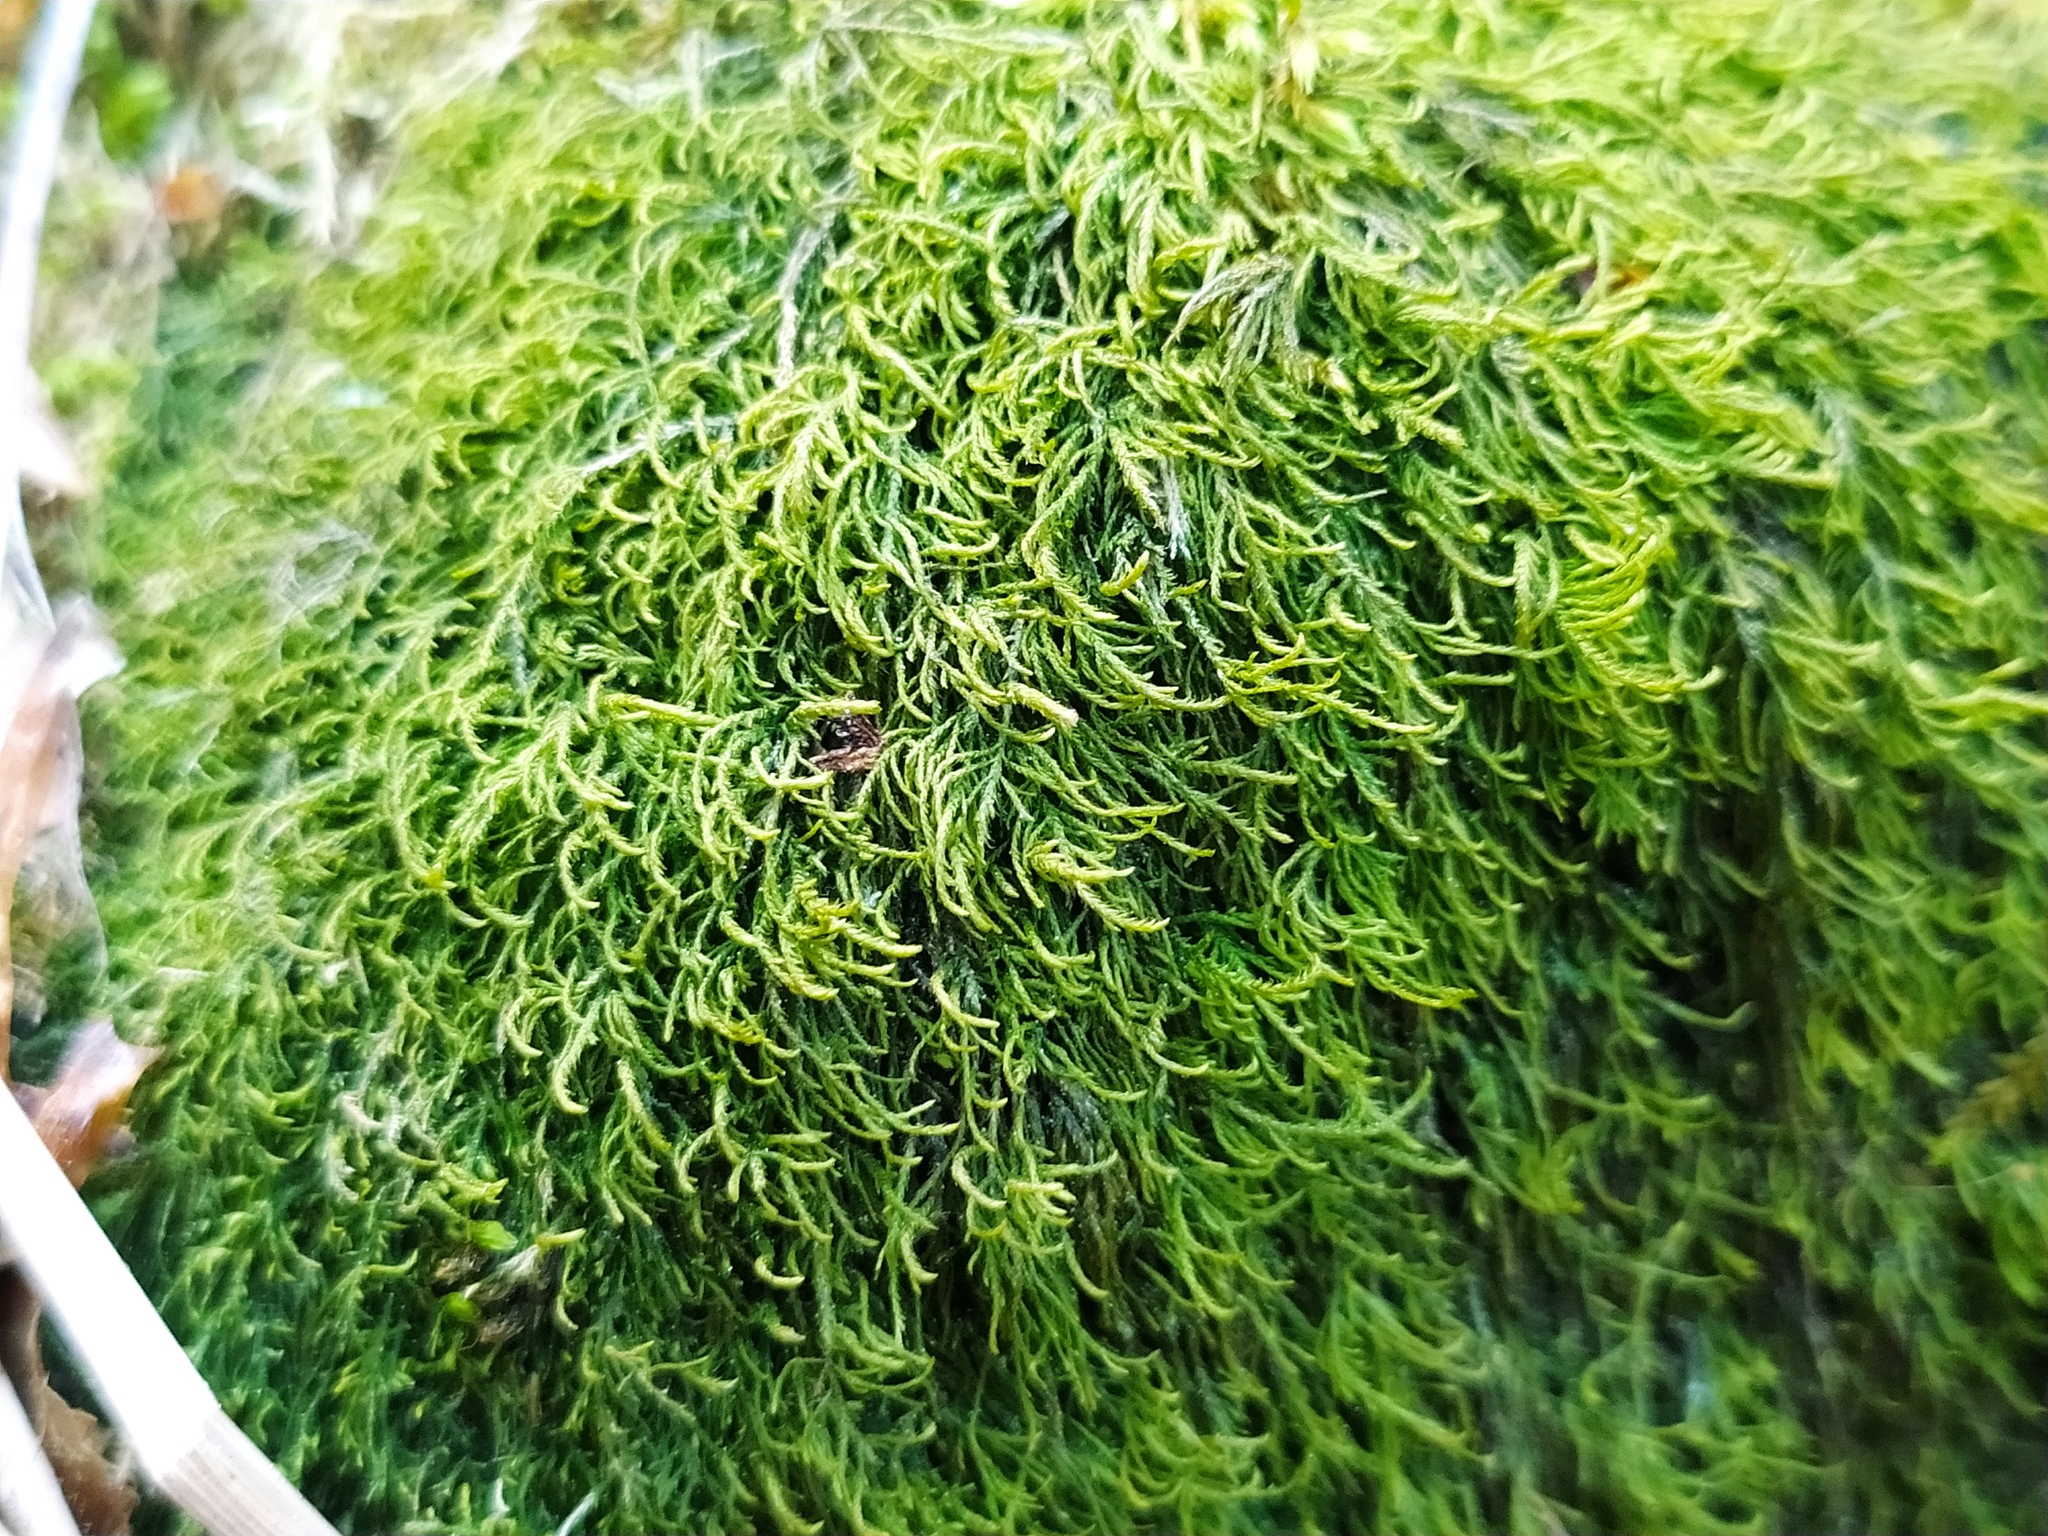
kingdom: Plantae
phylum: Bryophyta
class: Bryopsida
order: Hypnales
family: Lembophyllaceae
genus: Heterocladium
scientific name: Heterocladium heteropterum
